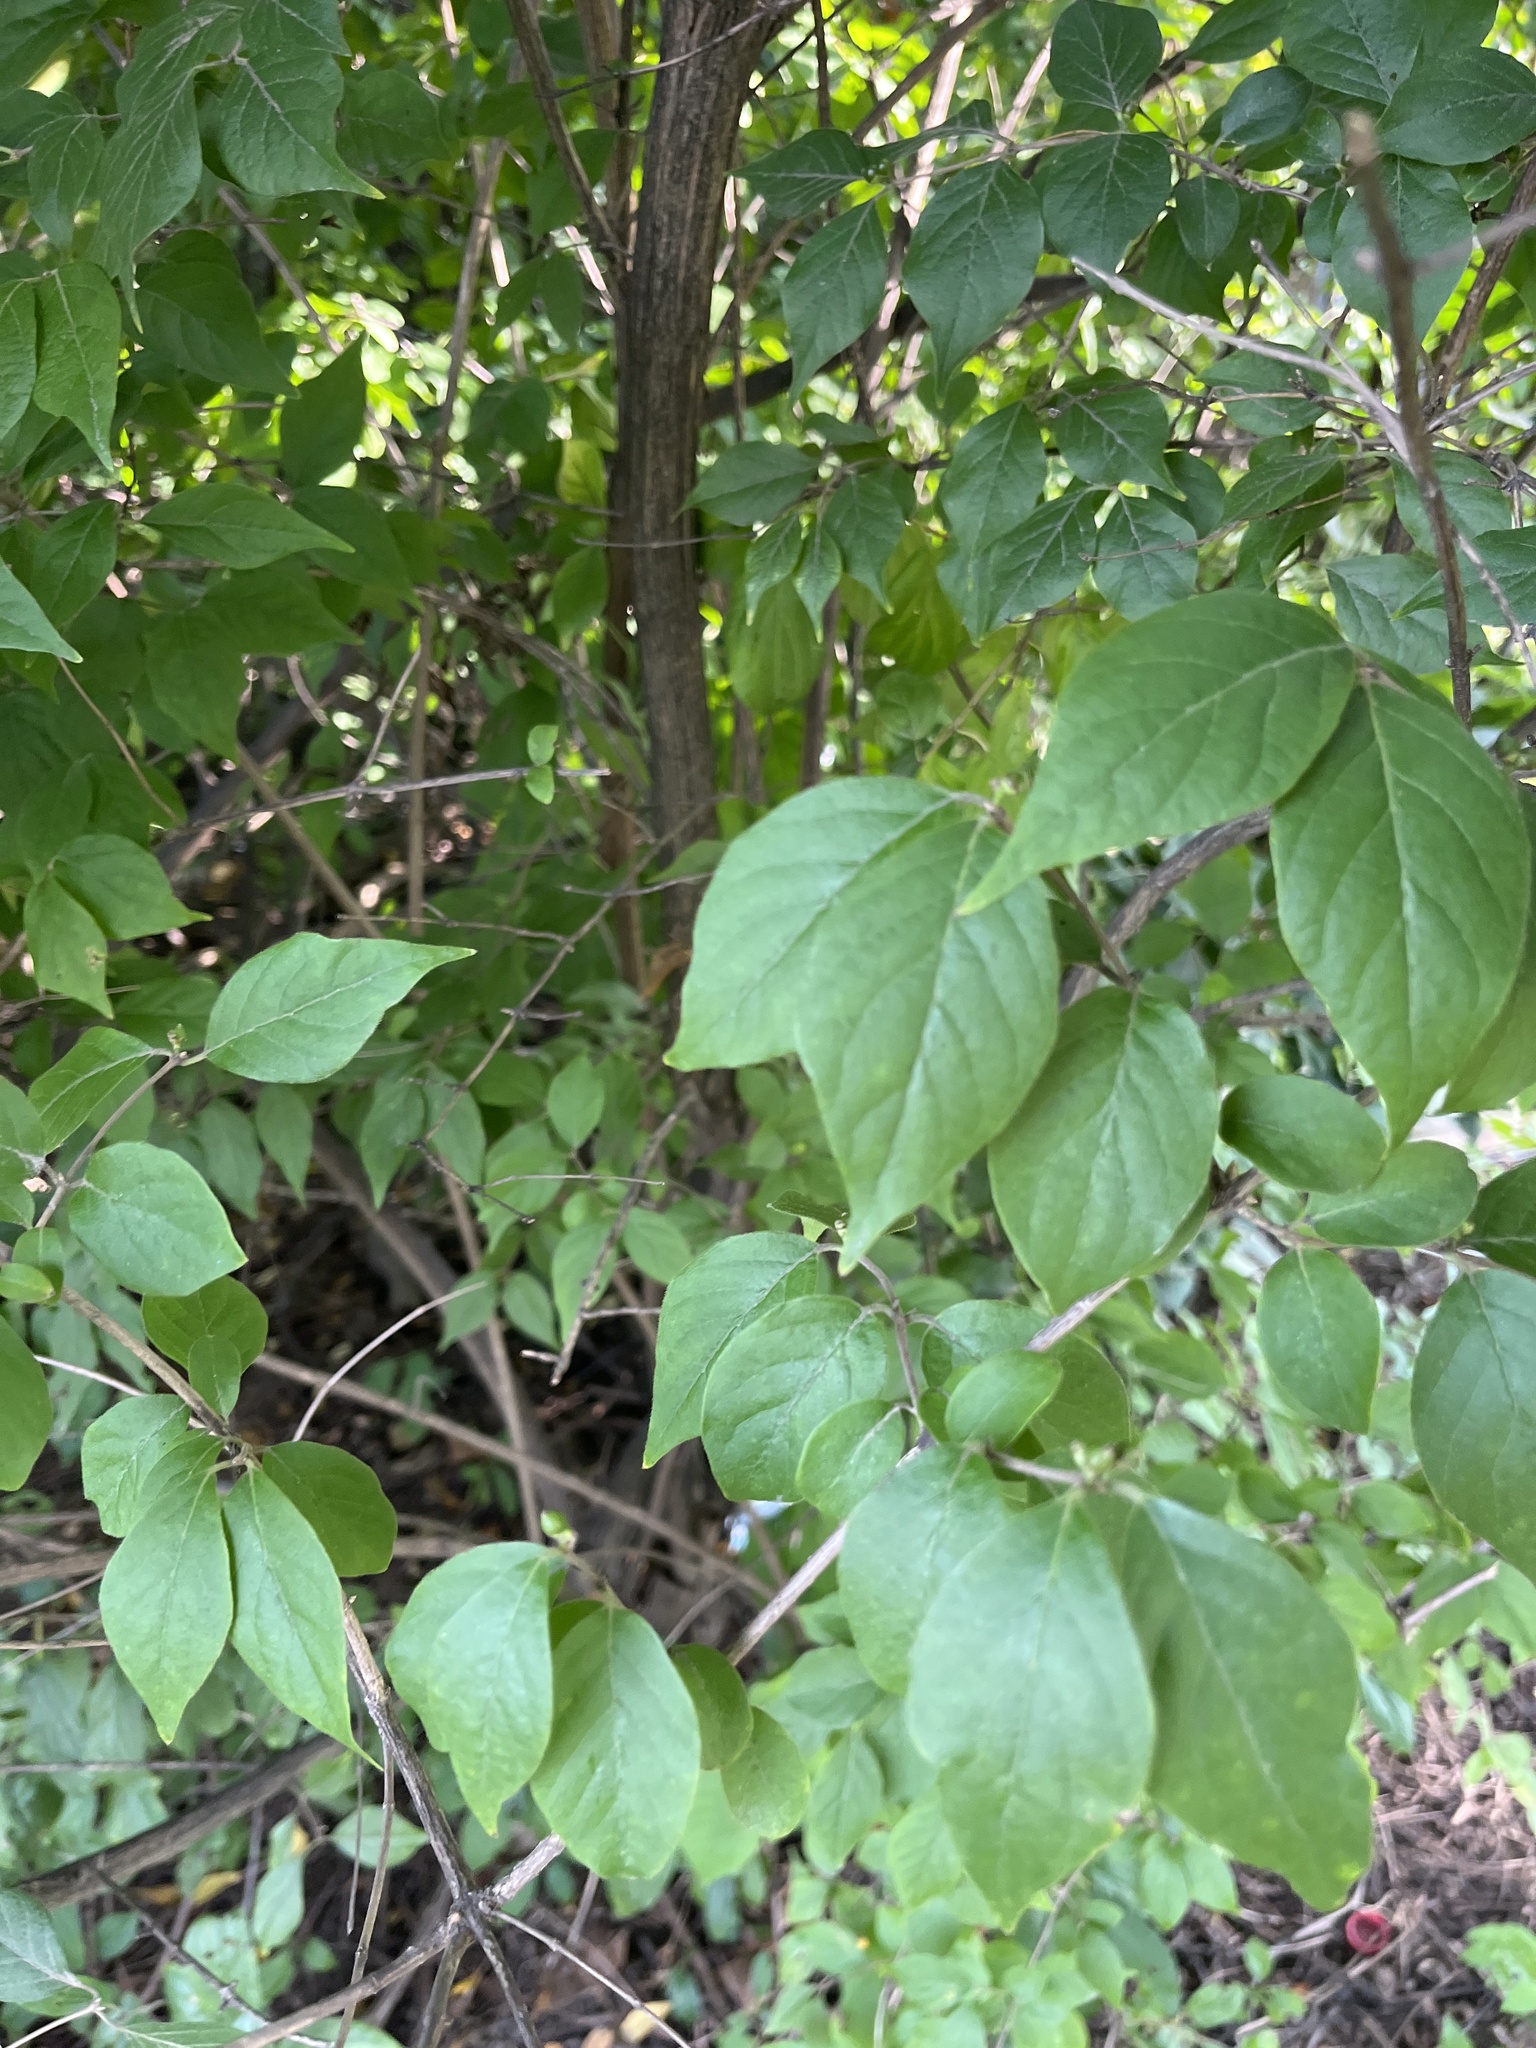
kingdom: Plantae
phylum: Tracheophyta
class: Magnoliopsida
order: Dipsacales
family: Caprifoliaceae
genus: Lonicera
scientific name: Lonicera maackii
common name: Amur honeysuckle
